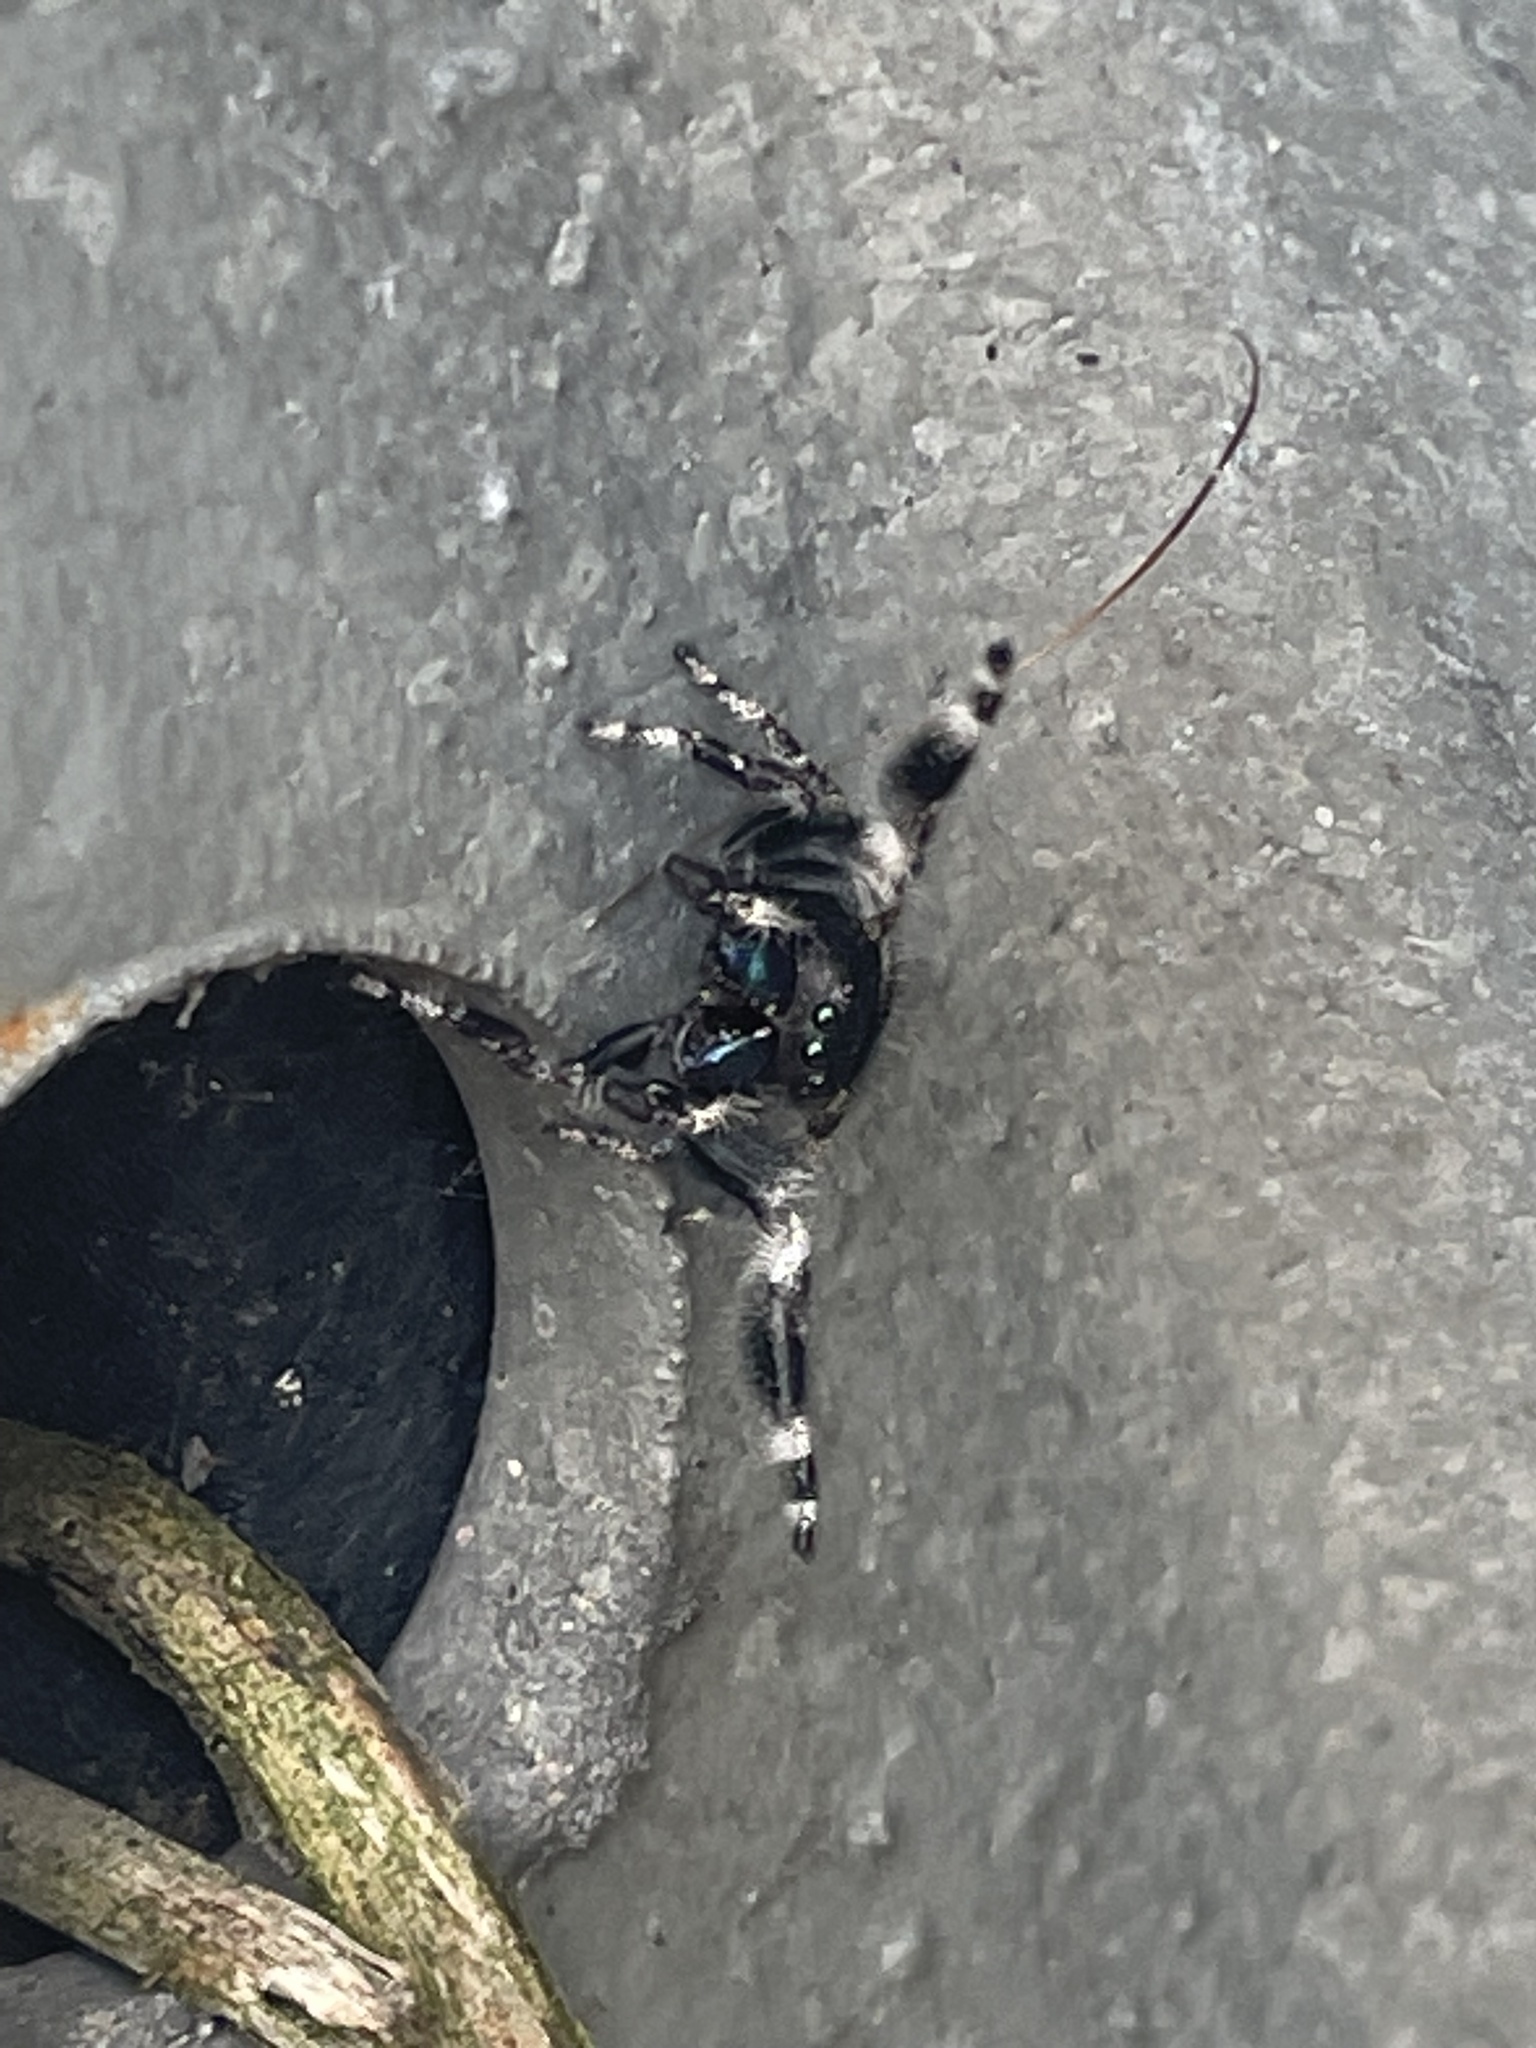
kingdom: Animalia
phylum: Arthropoda
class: Arachnida
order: Araneae
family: Salticidae
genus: Phidippus
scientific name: Phidippus audax
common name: Bold jumper
